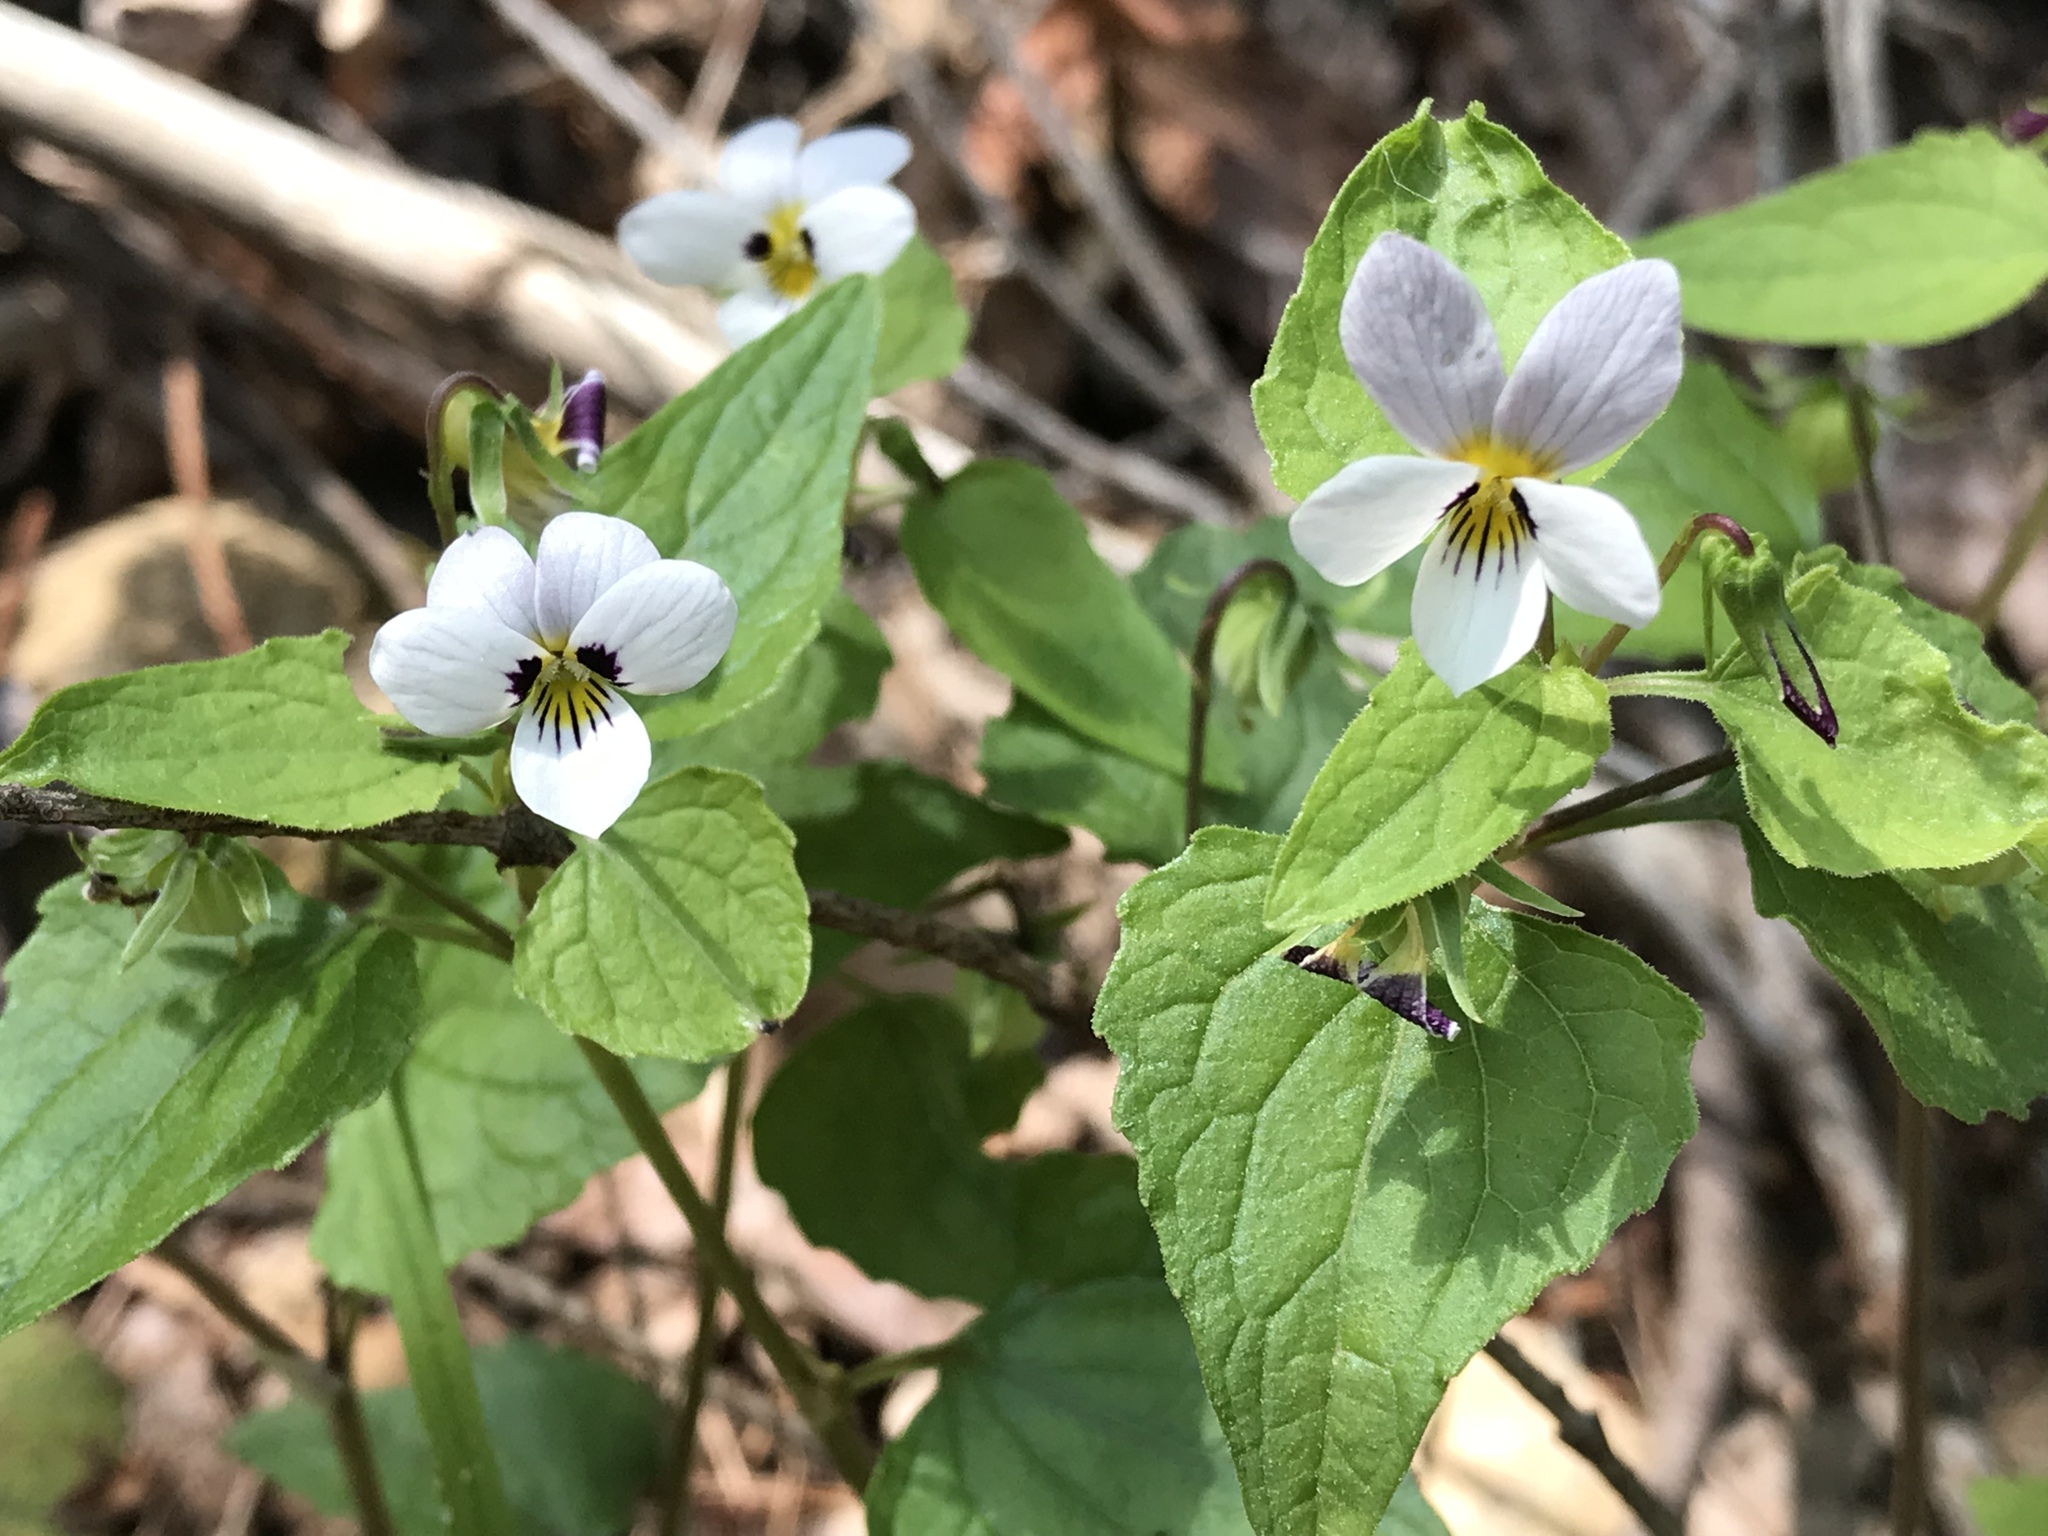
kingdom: Plantae
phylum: Tracheophyta
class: Magnoliopsida
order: Malpighiales
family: Violaceae
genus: Viola
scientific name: Viola ocellata
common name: Western heart's ease
